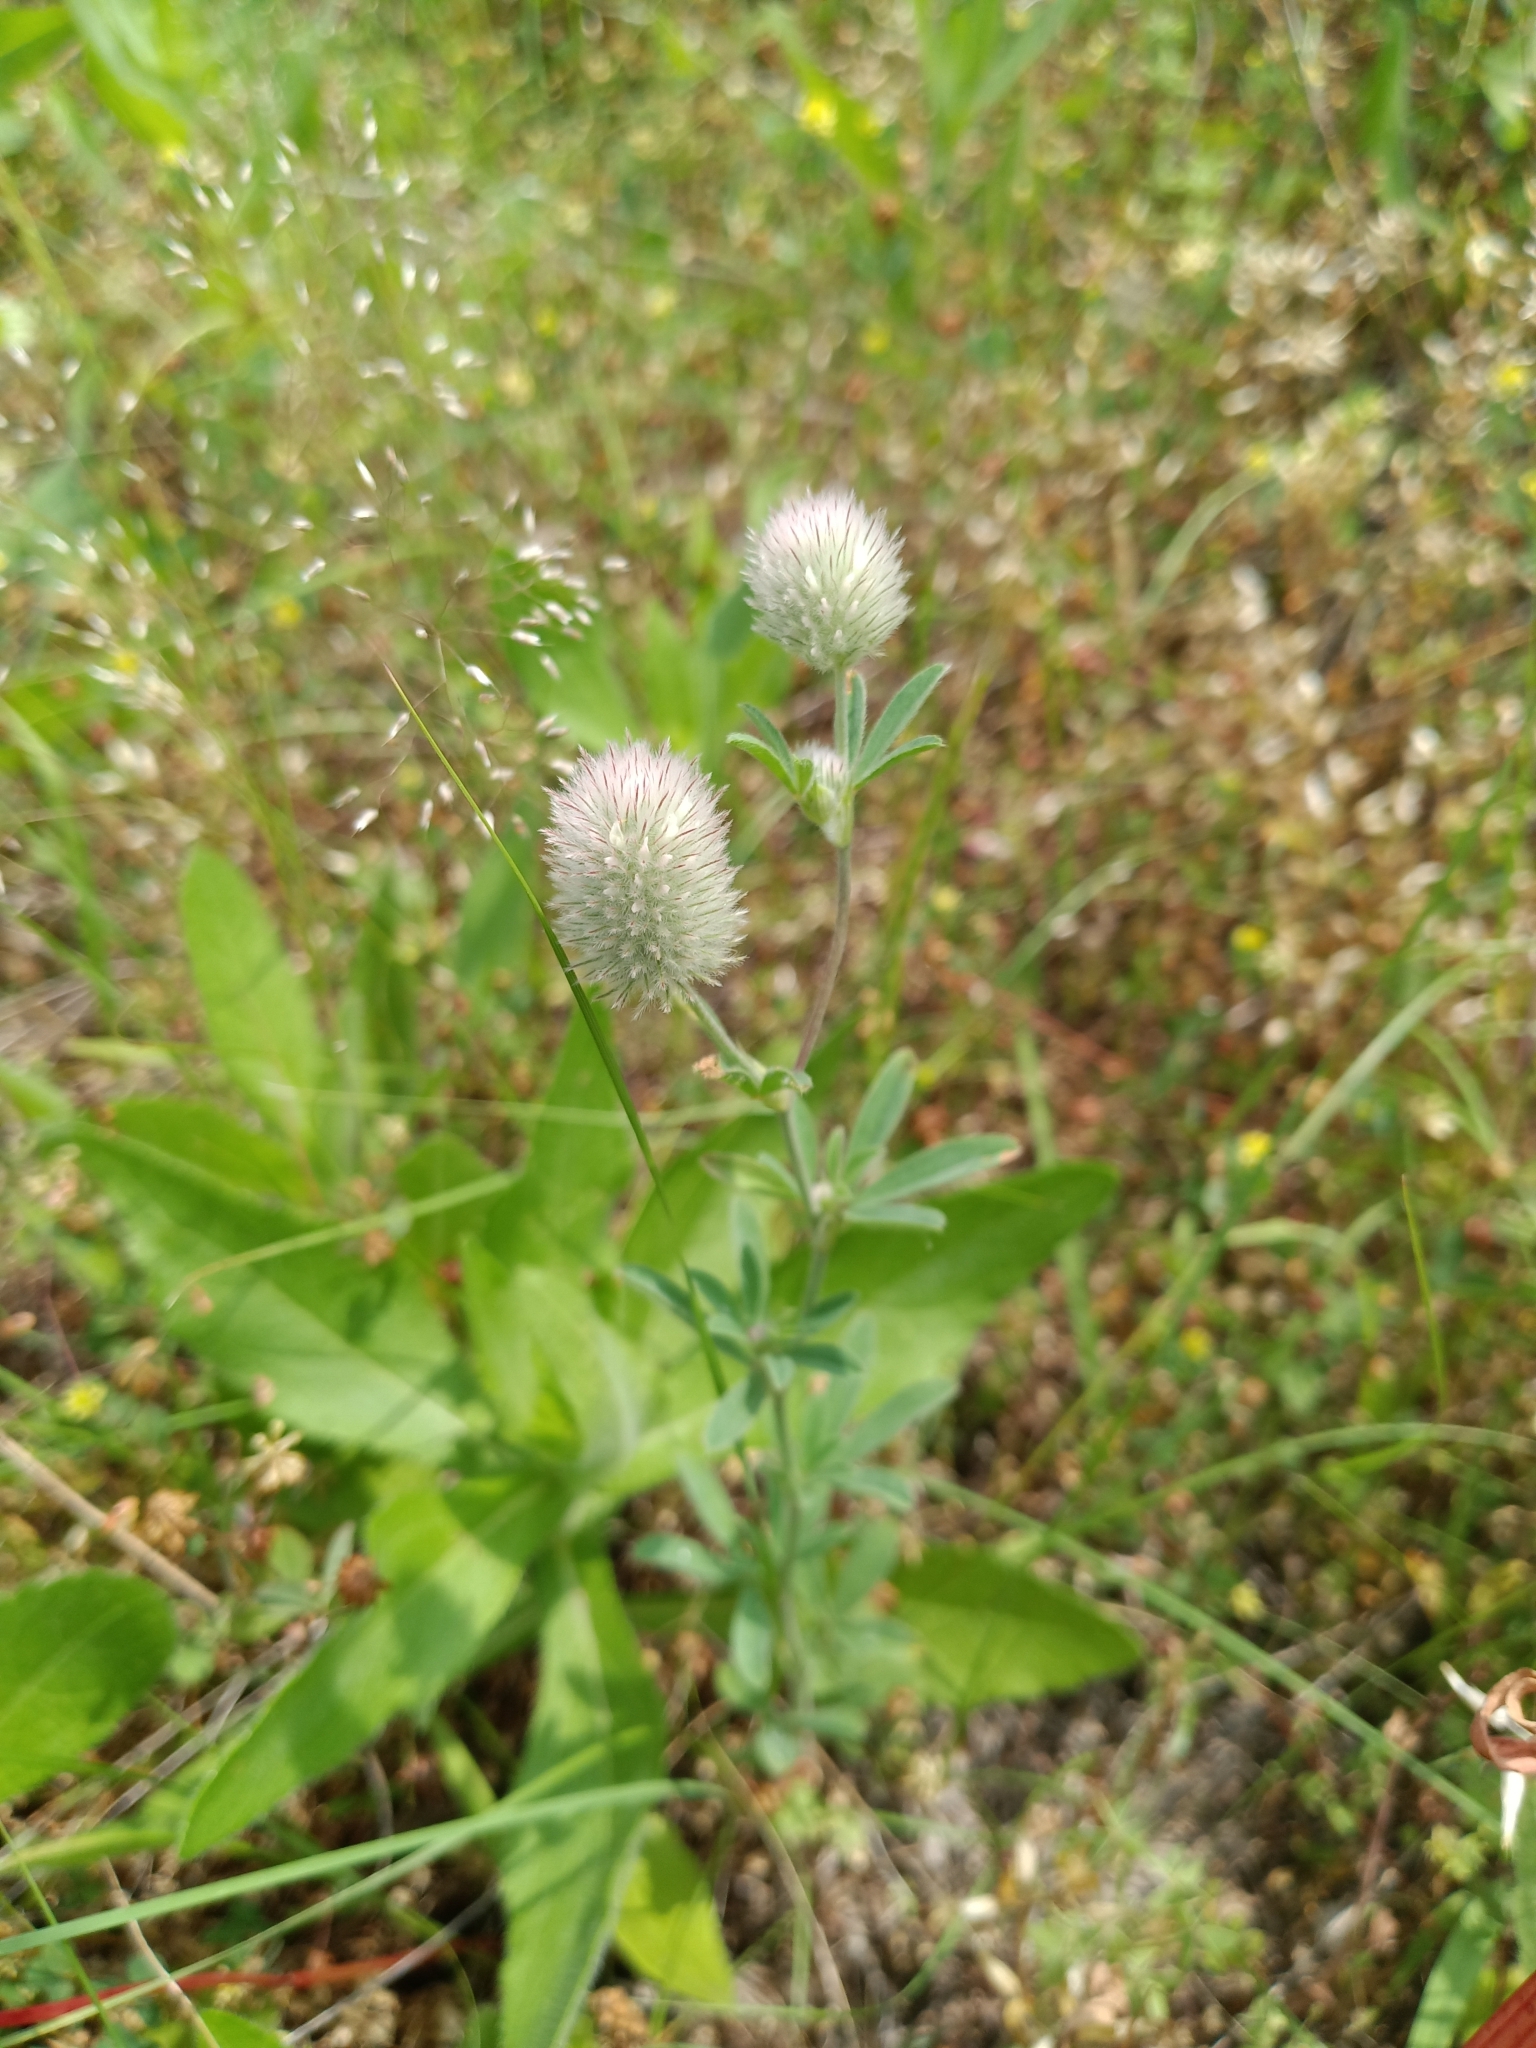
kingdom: Plantae
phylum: Tracheophyta
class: Magnoliopsida
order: Fabales
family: Fabaceae
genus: Trifolium
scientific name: Trifolium arvense
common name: Hare's-foot clover
